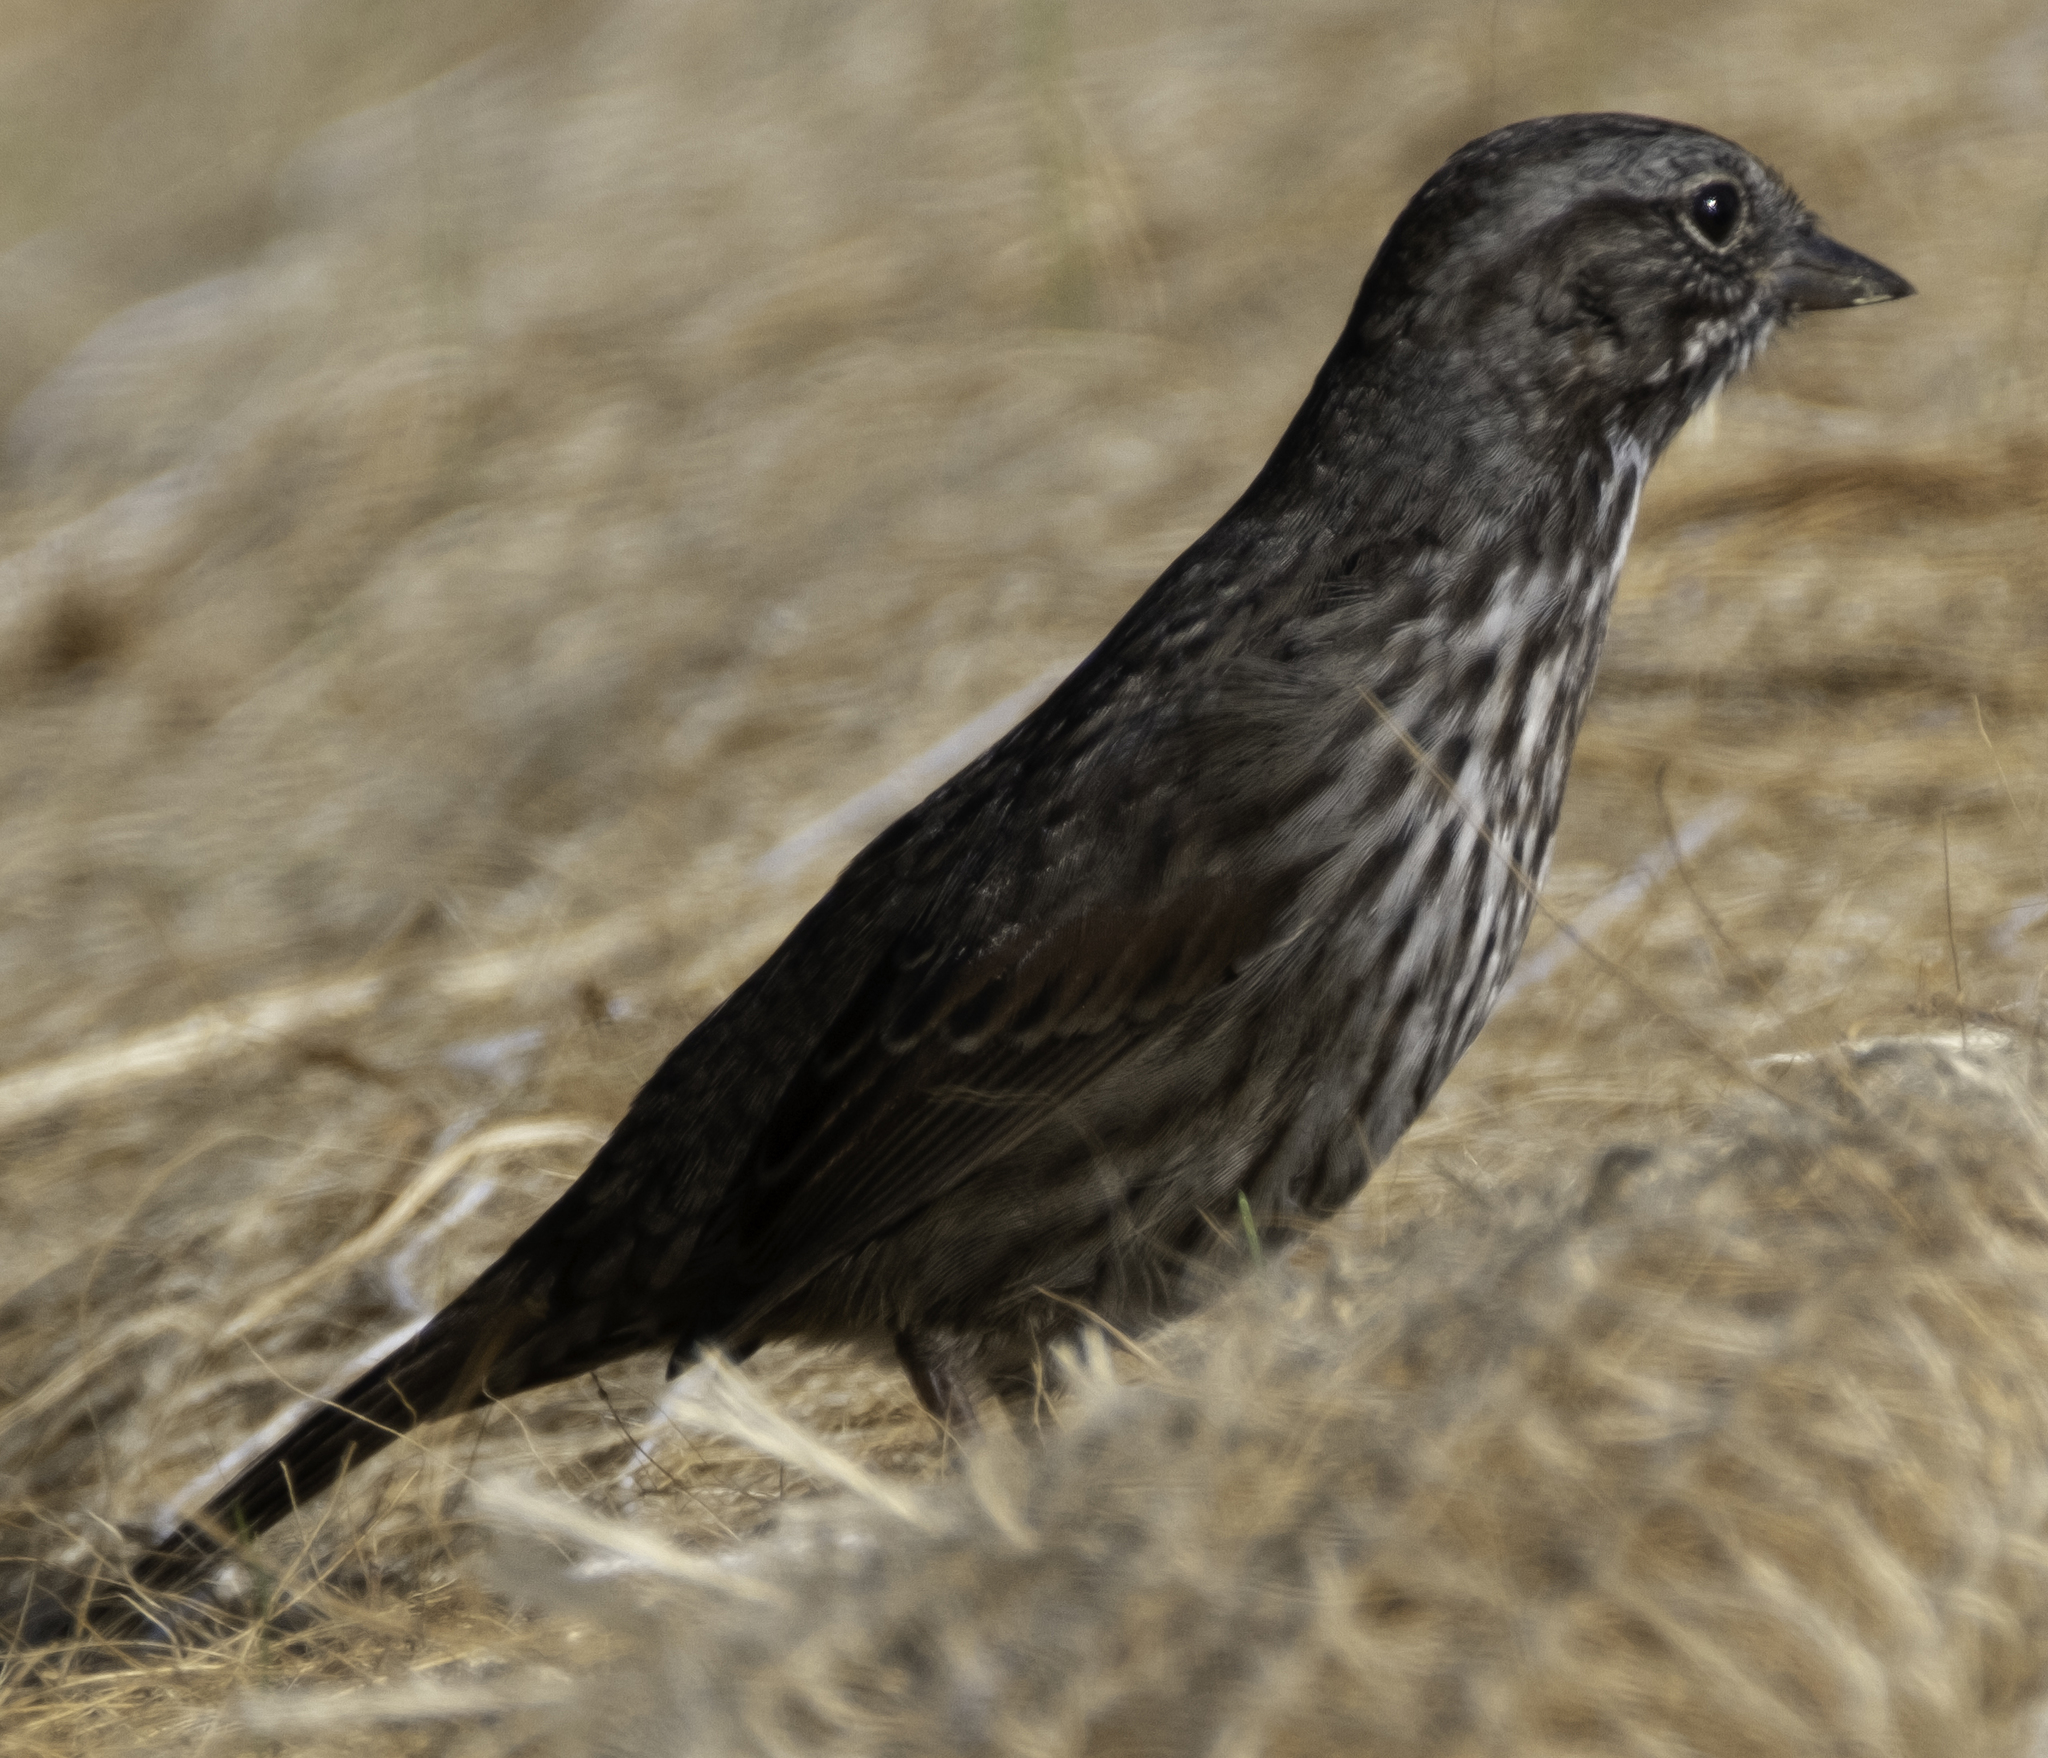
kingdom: Animalia
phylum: Chordata
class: Aves
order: Passeriformes
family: Passerellidae
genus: Melospiza
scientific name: Melospiza melodia
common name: Song sparrow
